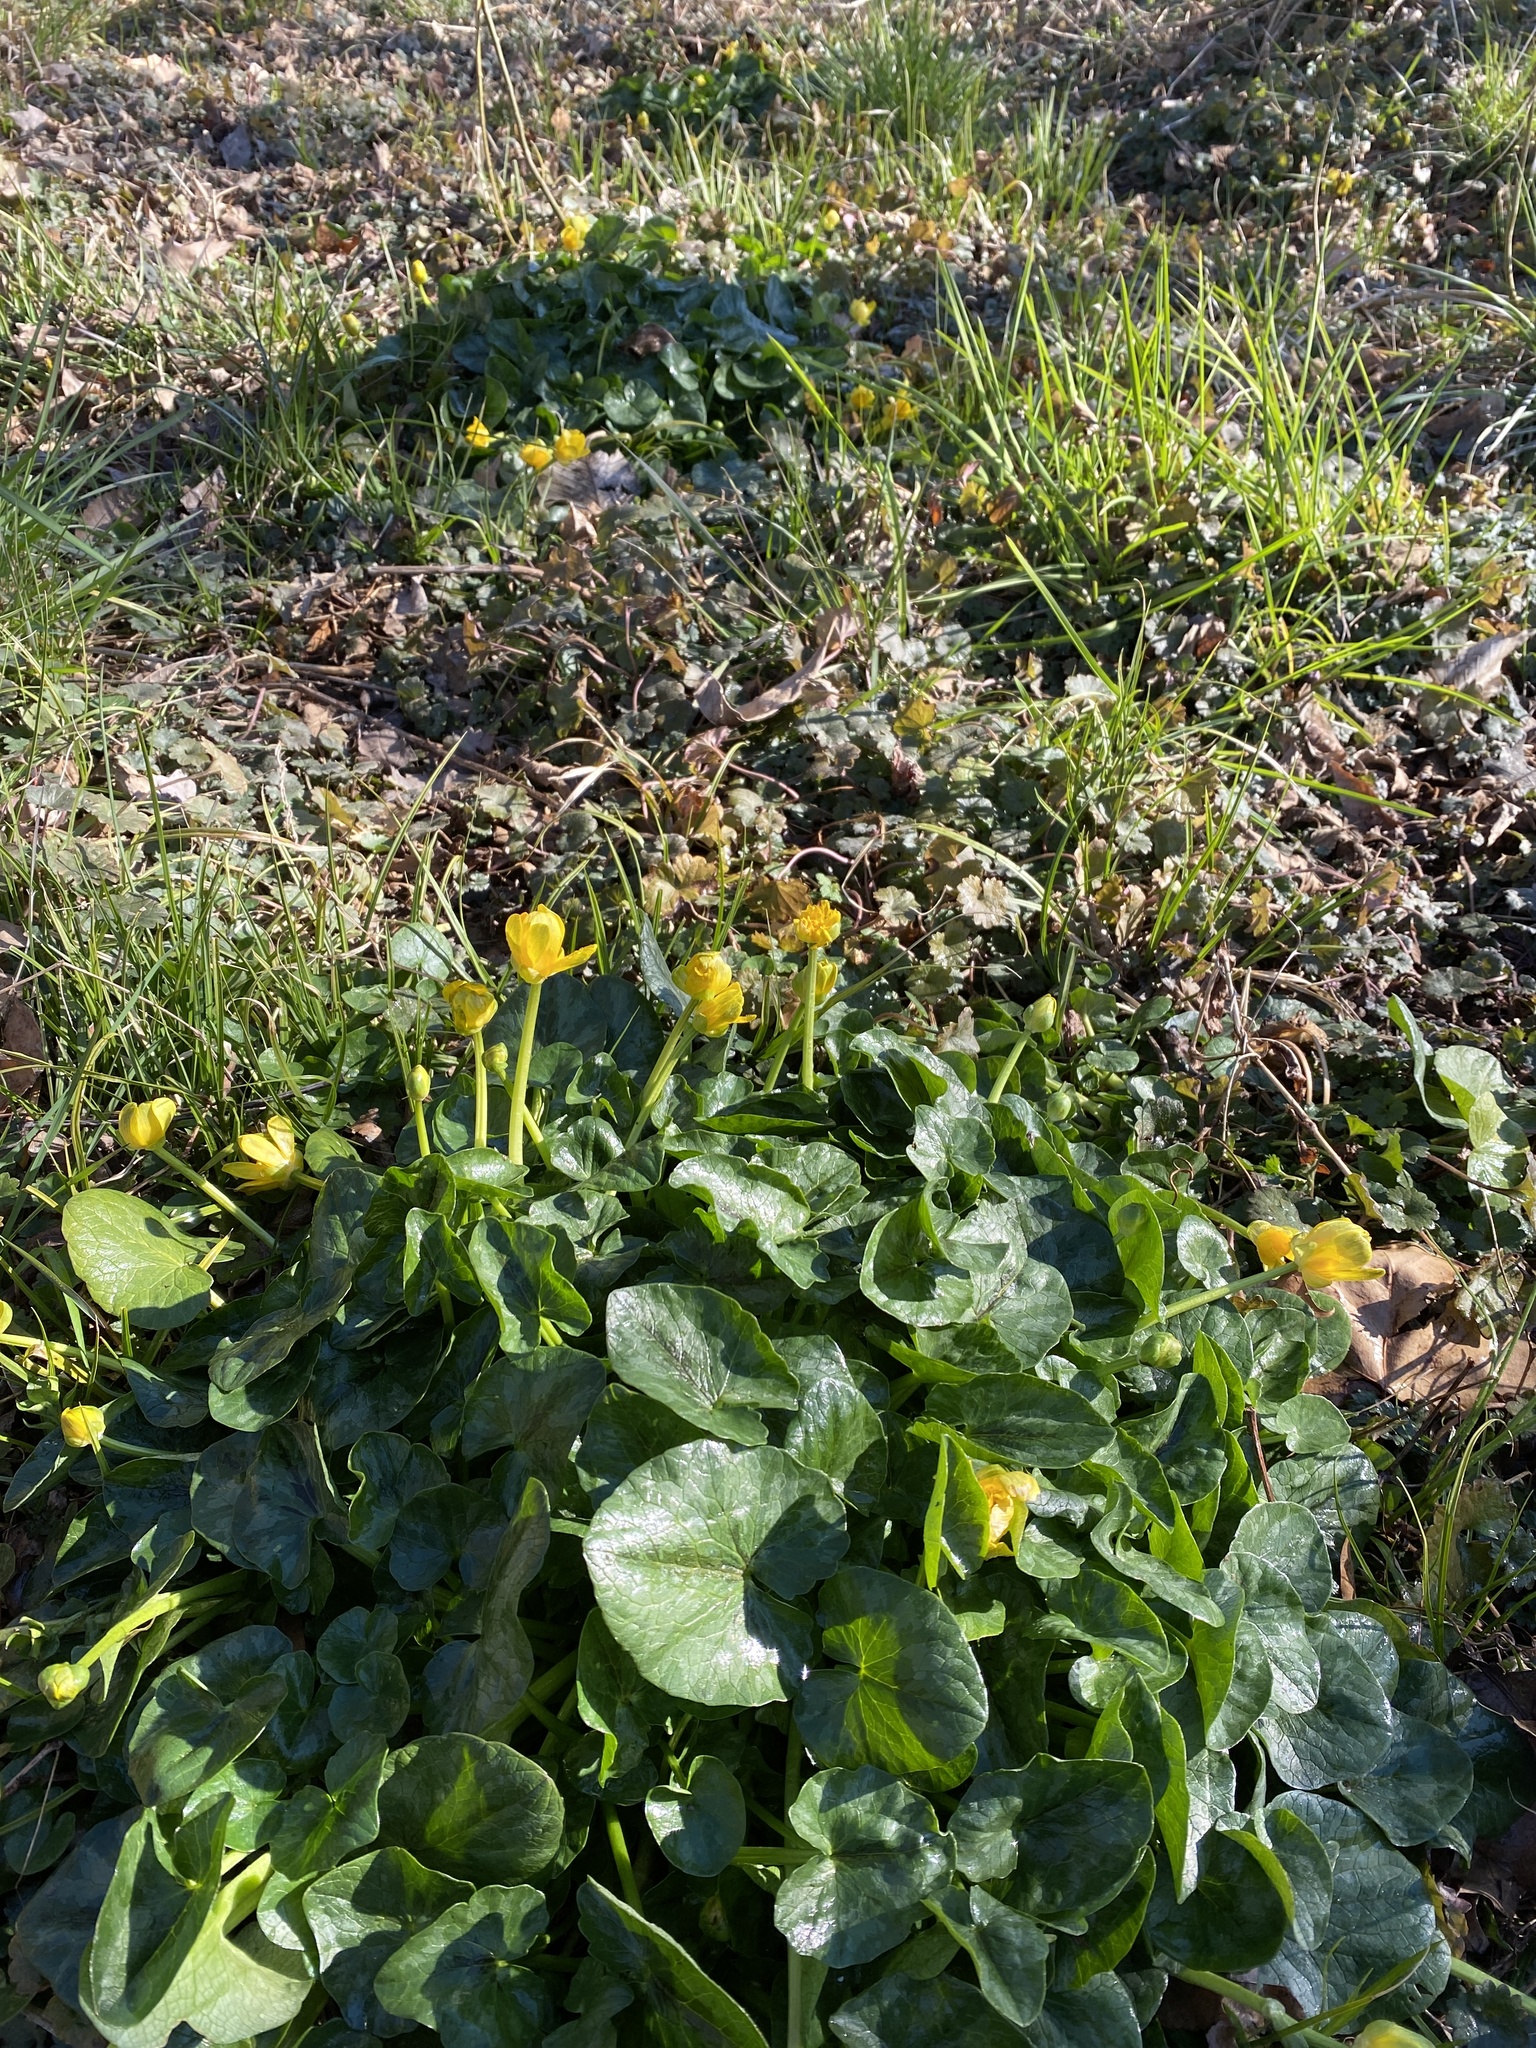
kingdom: Plantae
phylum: Tracheophyta
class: Magnoliopsida
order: Ranunculales
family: Ranunculaceae
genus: Ficaria
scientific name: Ficaria verna
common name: Lesser celandine
